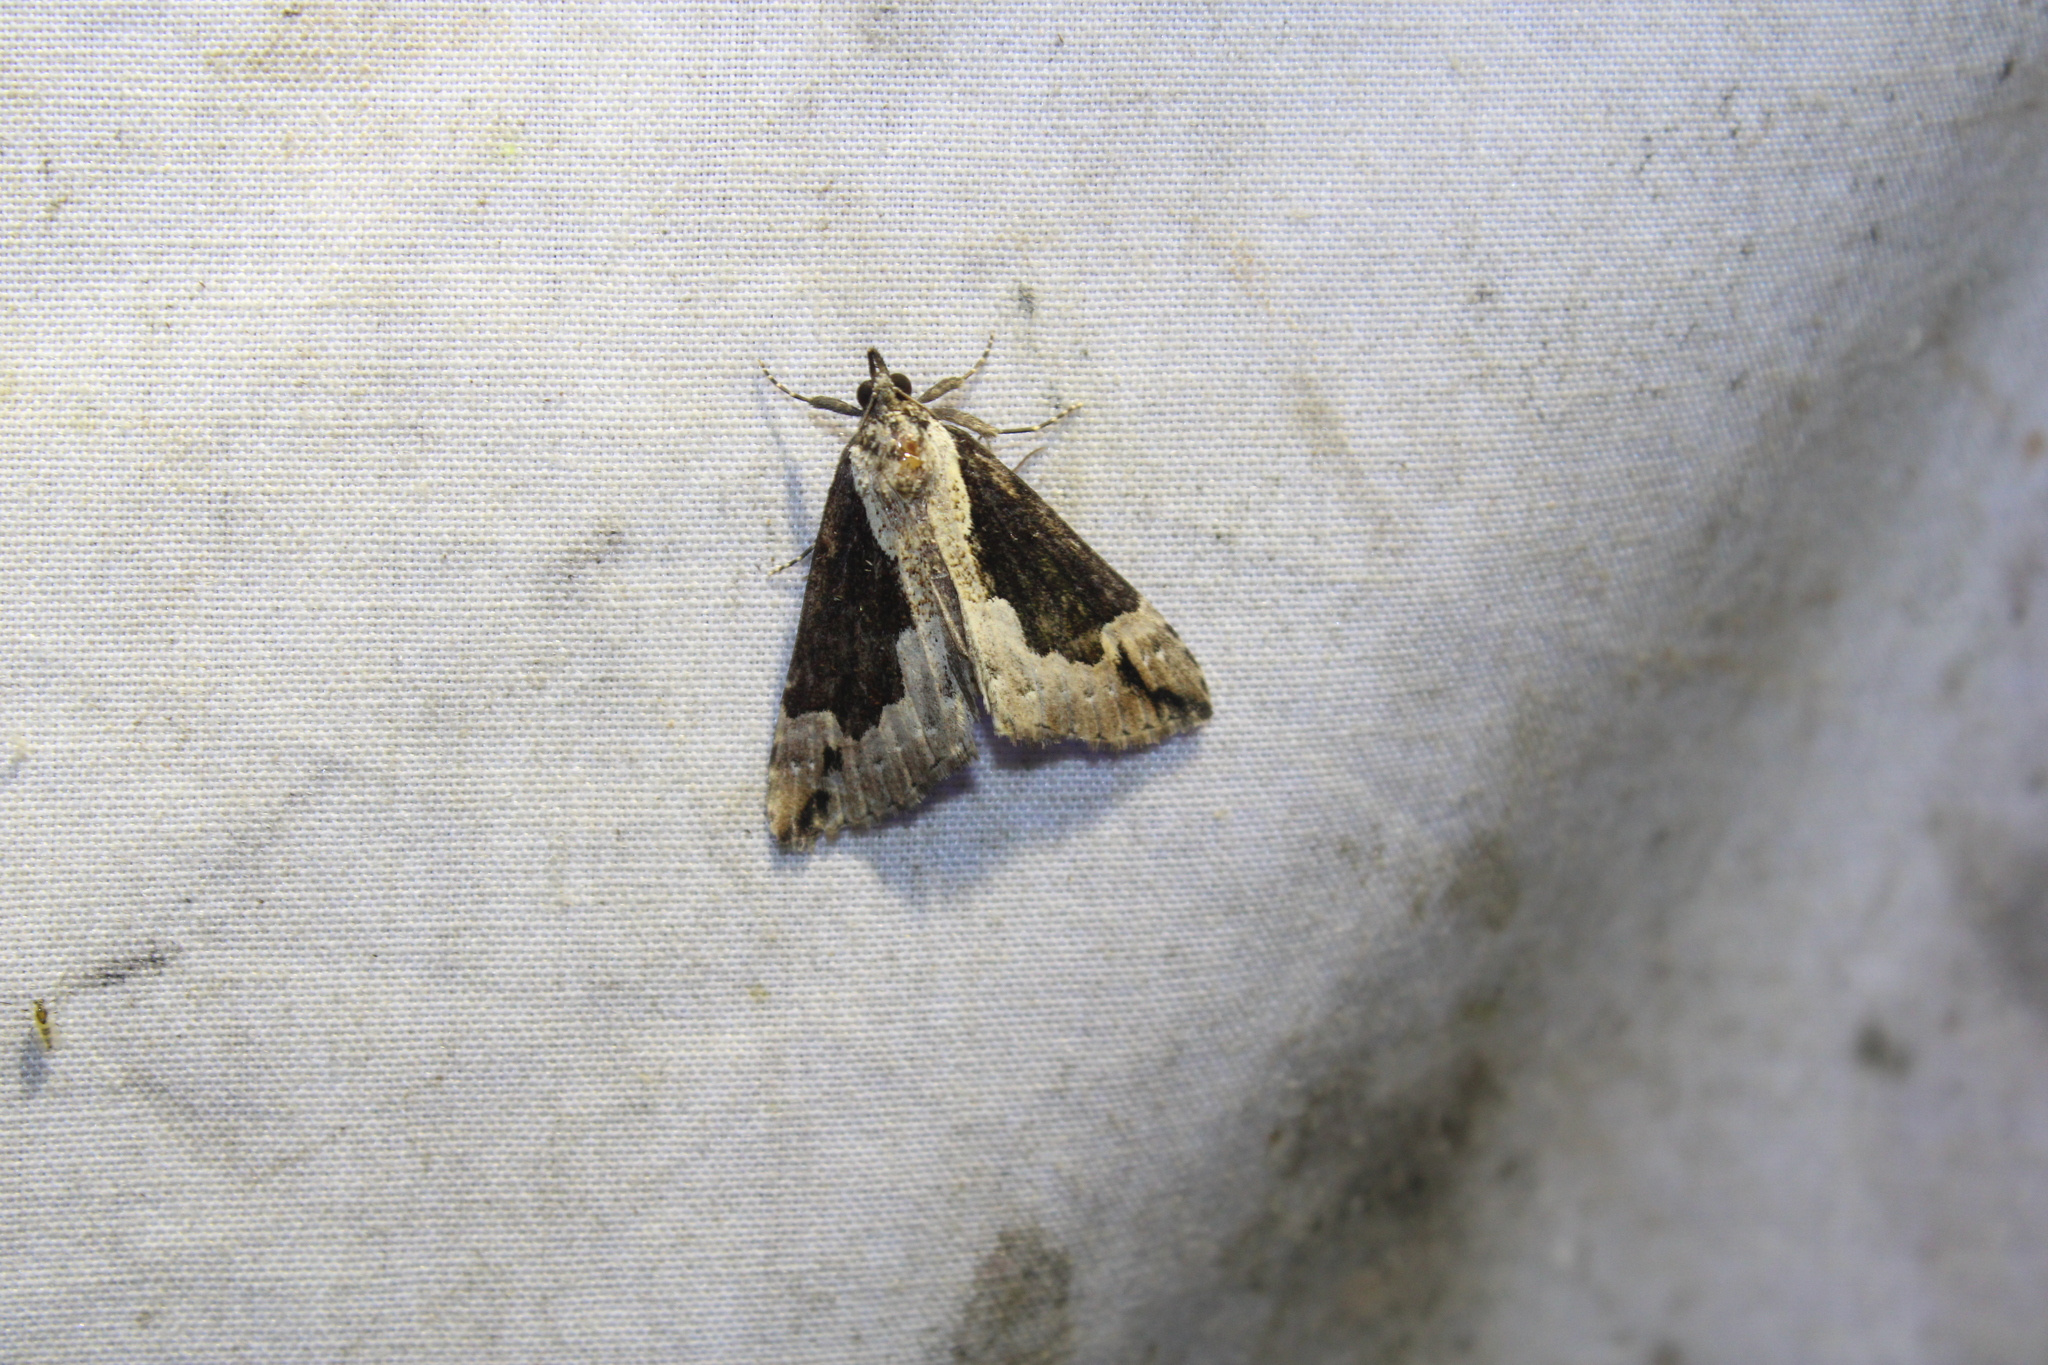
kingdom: Animalia
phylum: Arthropoda
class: Insecta
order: Lepidoptera
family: Erebidae
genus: Hypena
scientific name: Hypena baltimoralis
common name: Baltimore snout
